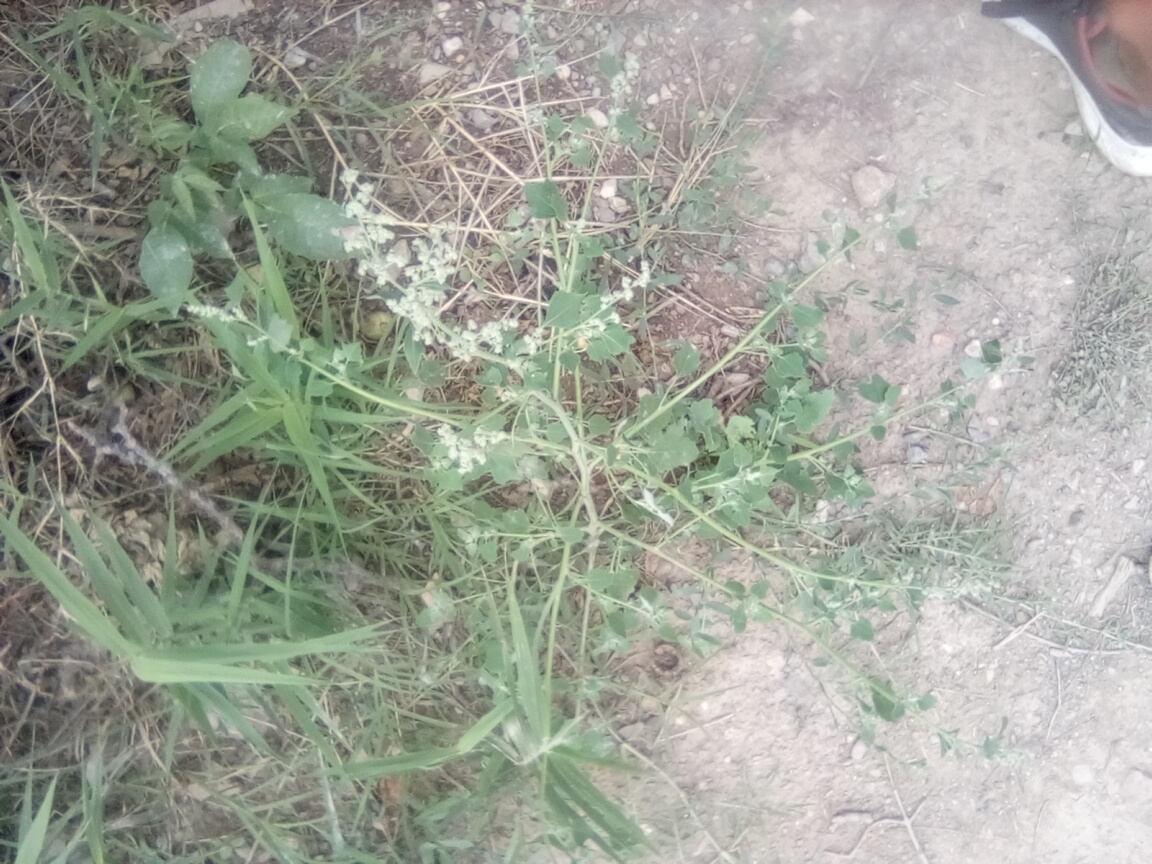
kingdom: Plantae
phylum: Tracheophyta
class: Magnoliopsida
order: Caryophyllales
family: Amaranthaceae
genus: Chenopodium
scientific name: Chenopodium opulifolium
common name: Grey goosefoot
